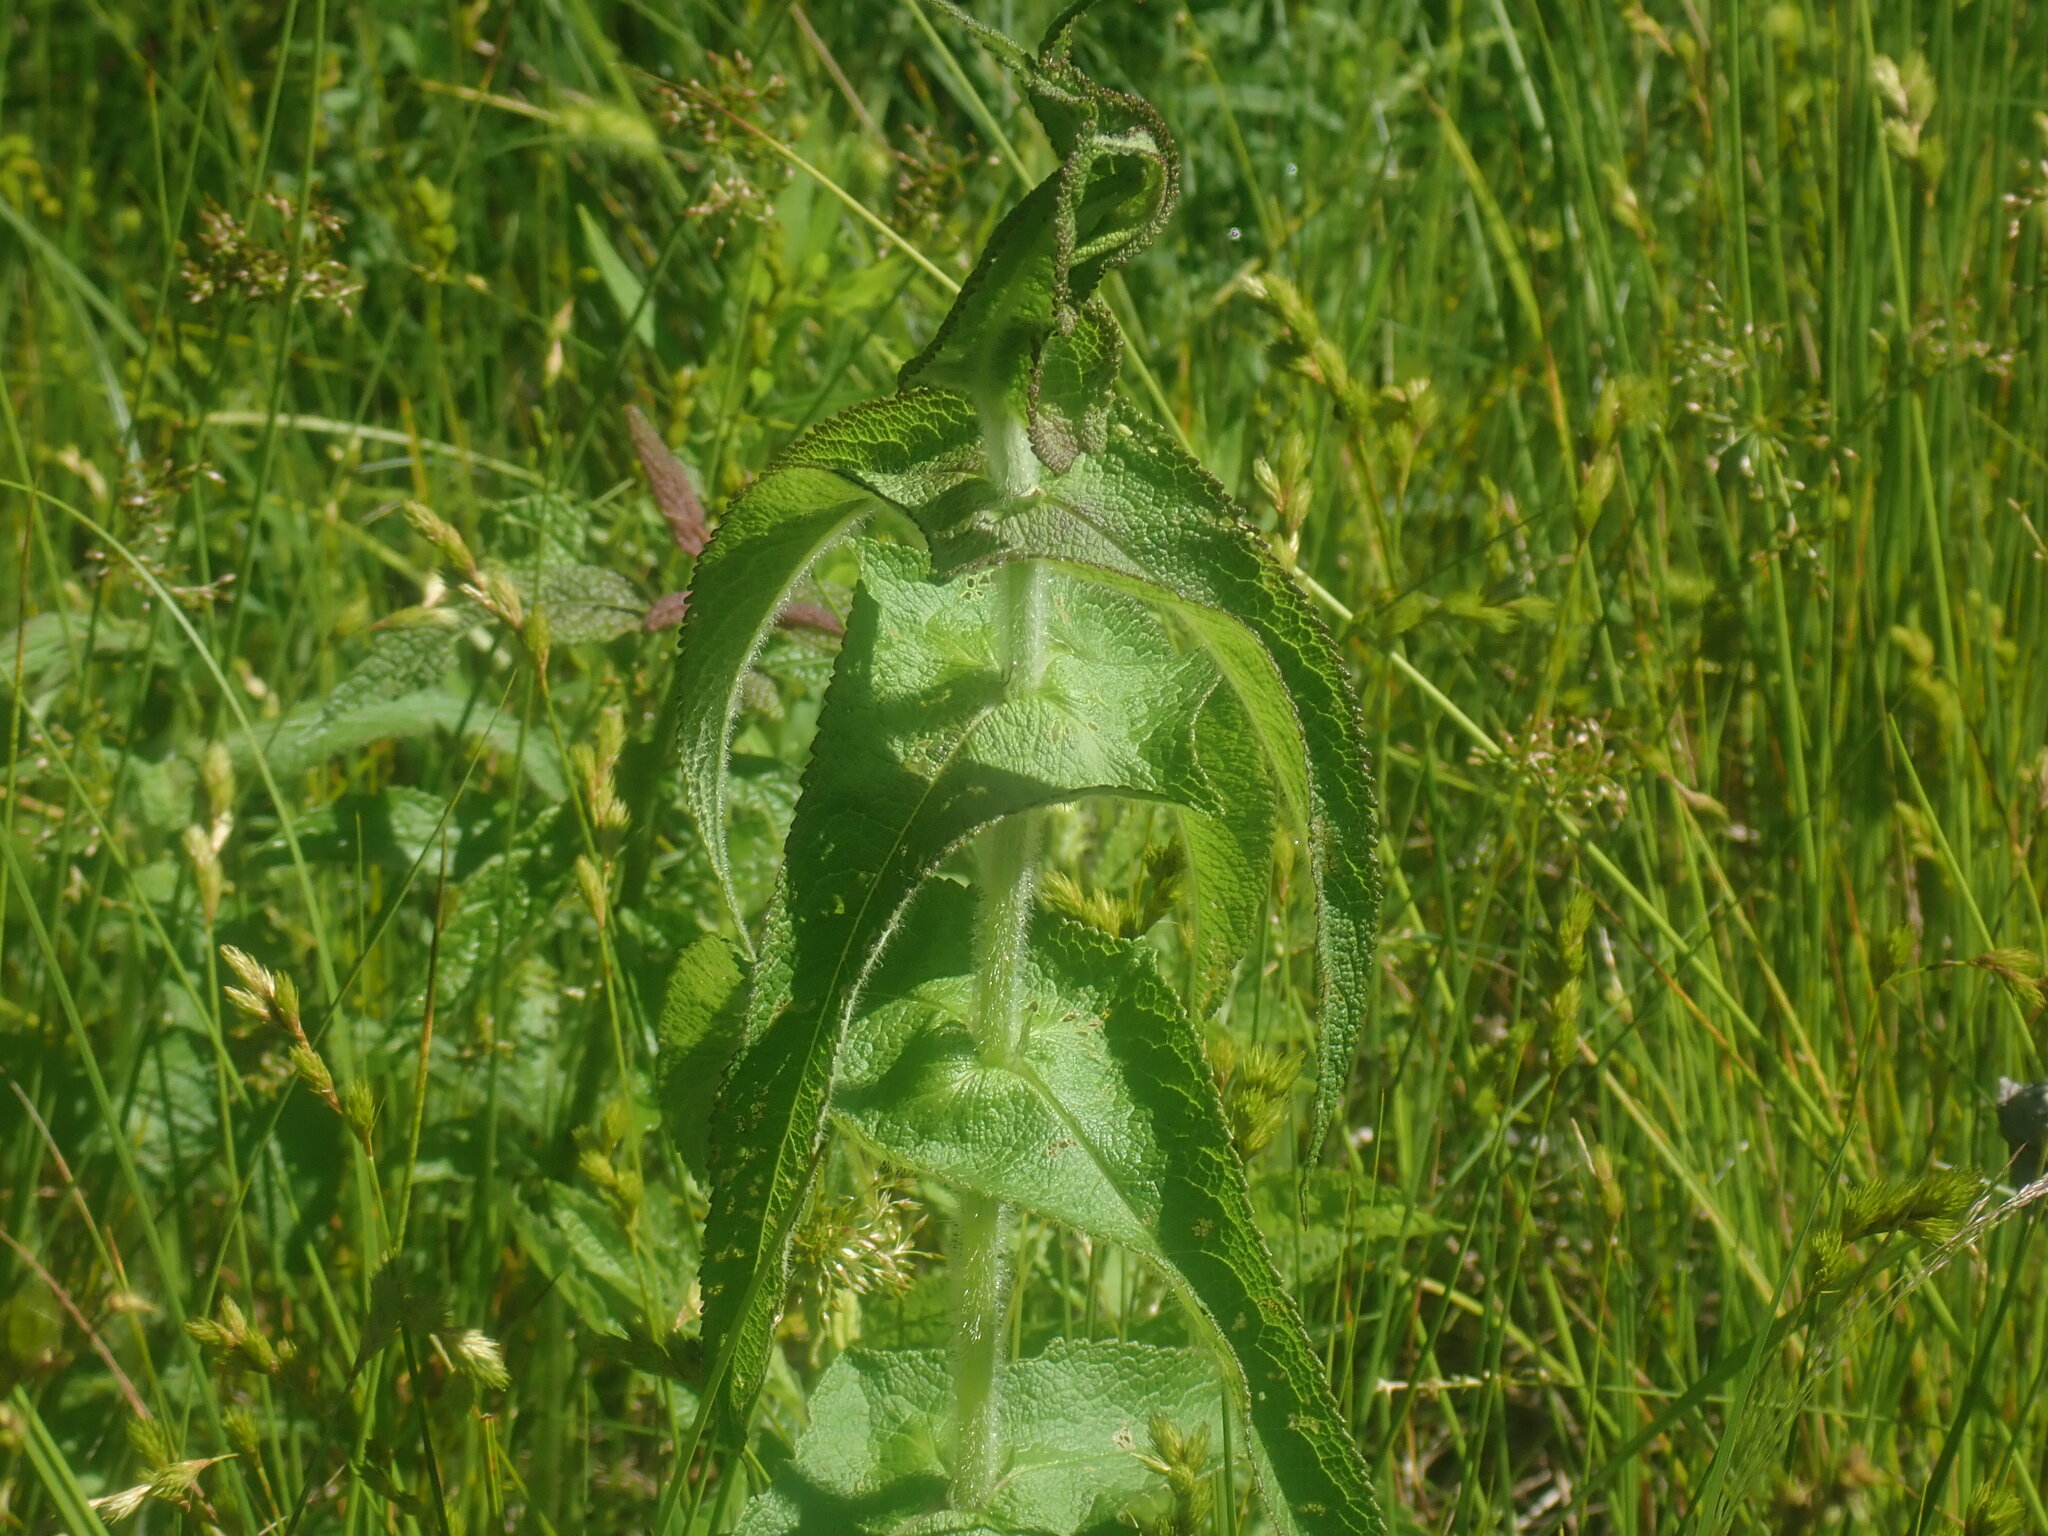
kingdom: Plantae
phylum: Tracheophyta
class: Magnoliopsida
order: Asterales
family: Asteraceae
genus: Eupatorium
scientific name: Eupatorium perfoliatum
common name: Boneset
